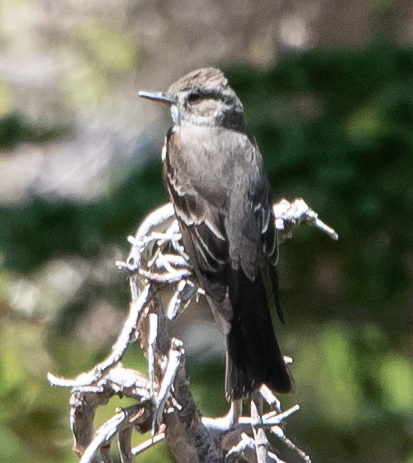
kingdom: Animalia
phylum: Chordata
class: Aves
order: Passeriformes
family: Tyrannidae
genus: Contopus
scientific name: Contopus sordidulus
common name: Western wood-pewee
